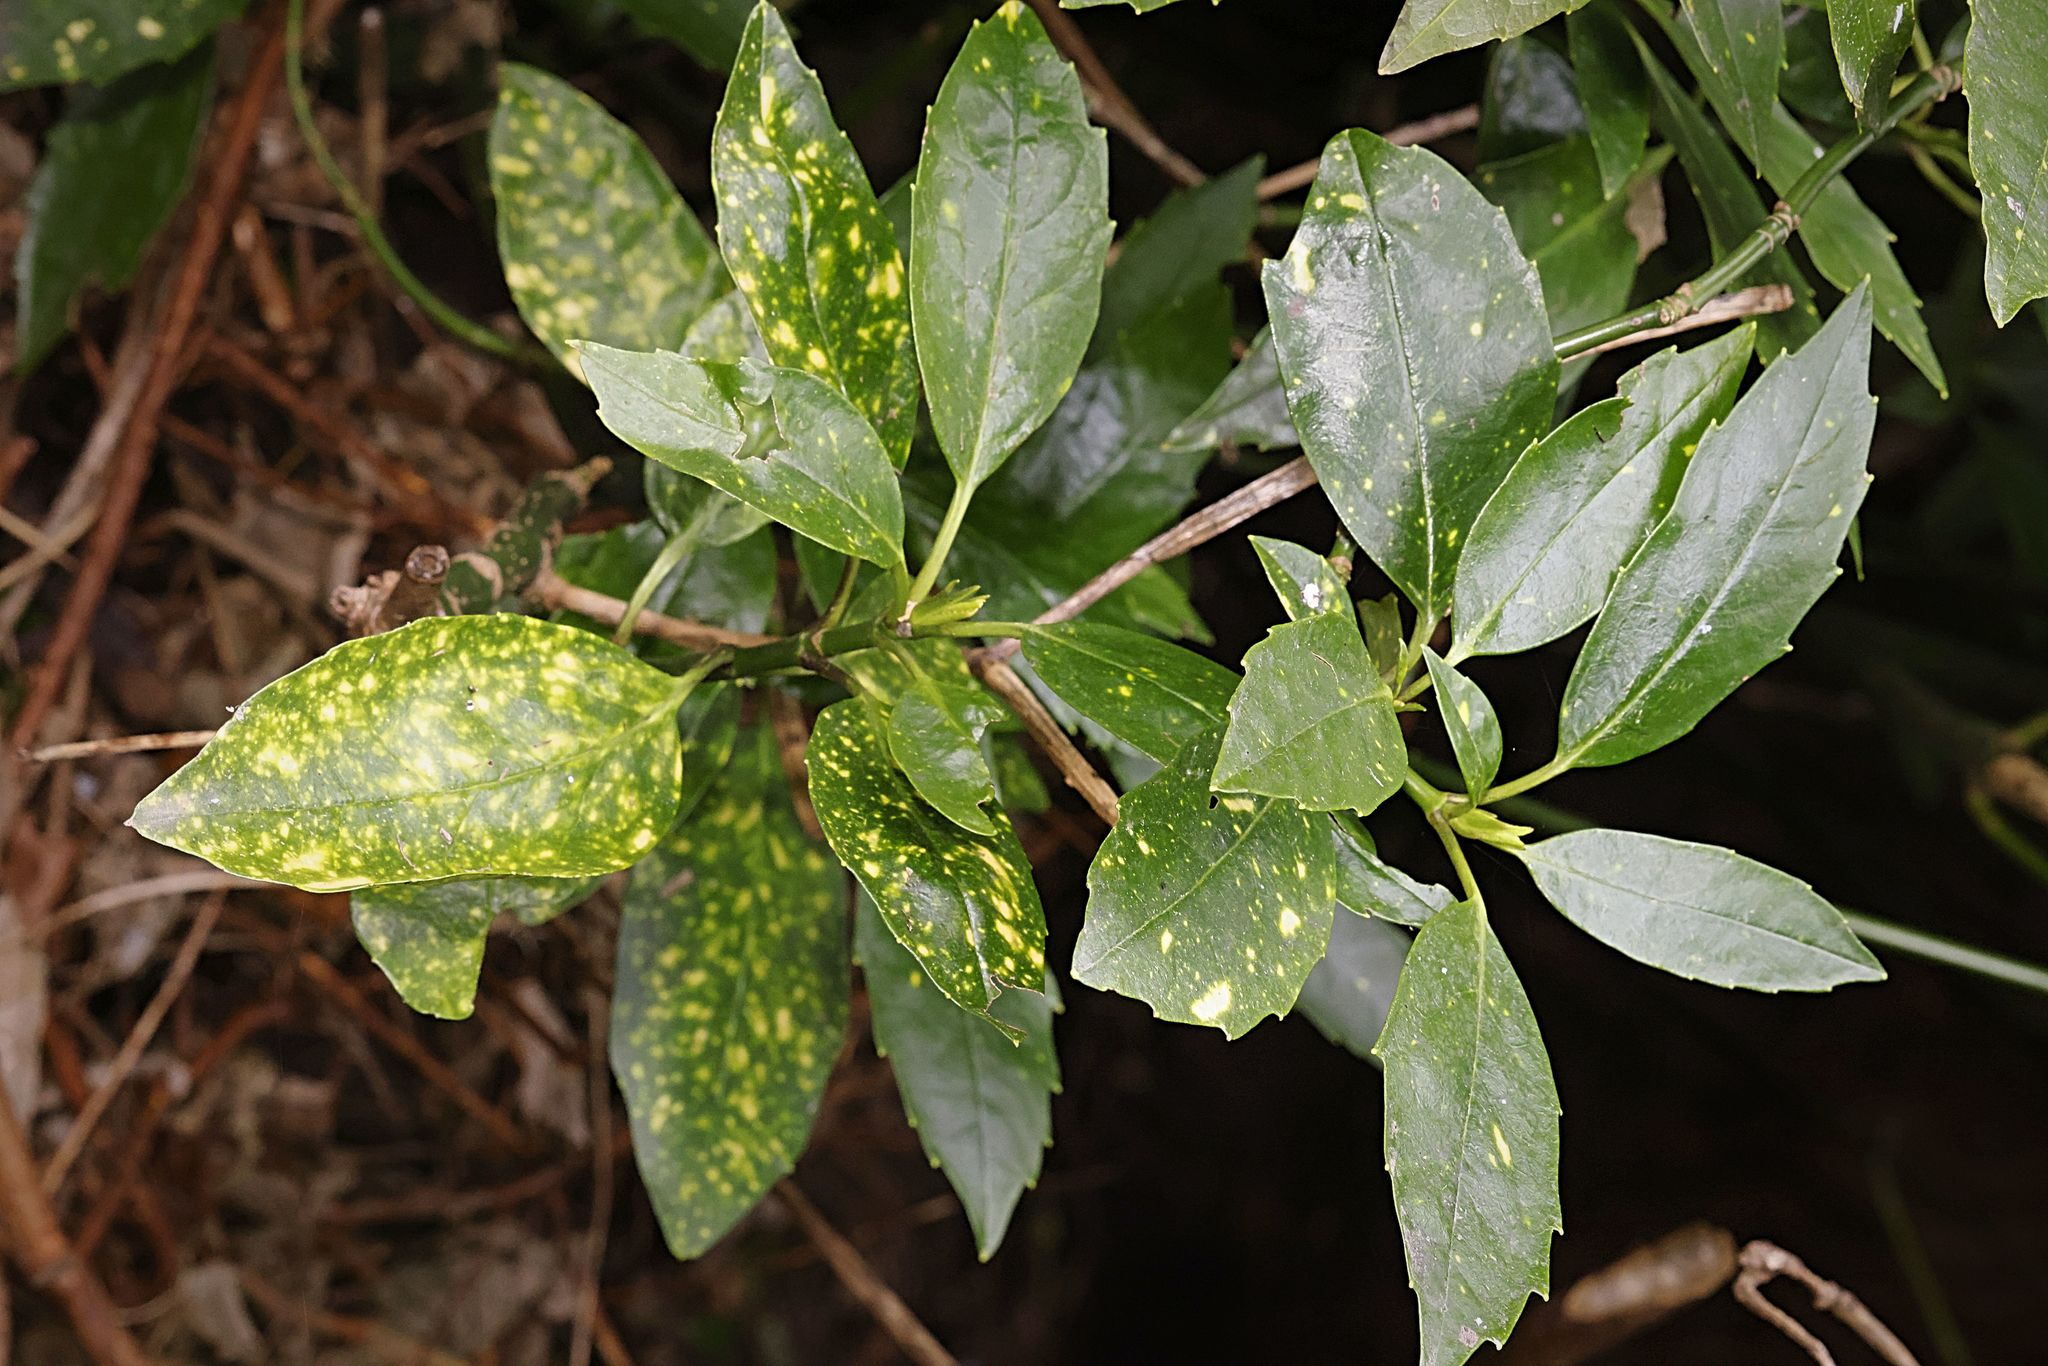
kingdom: Plantae
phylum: Tracheophyta
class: Magnoliopsida
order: Garryales
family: Garryaceae
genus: Aucuba
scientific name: Aucuba japonica
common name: Spotted-laurel
